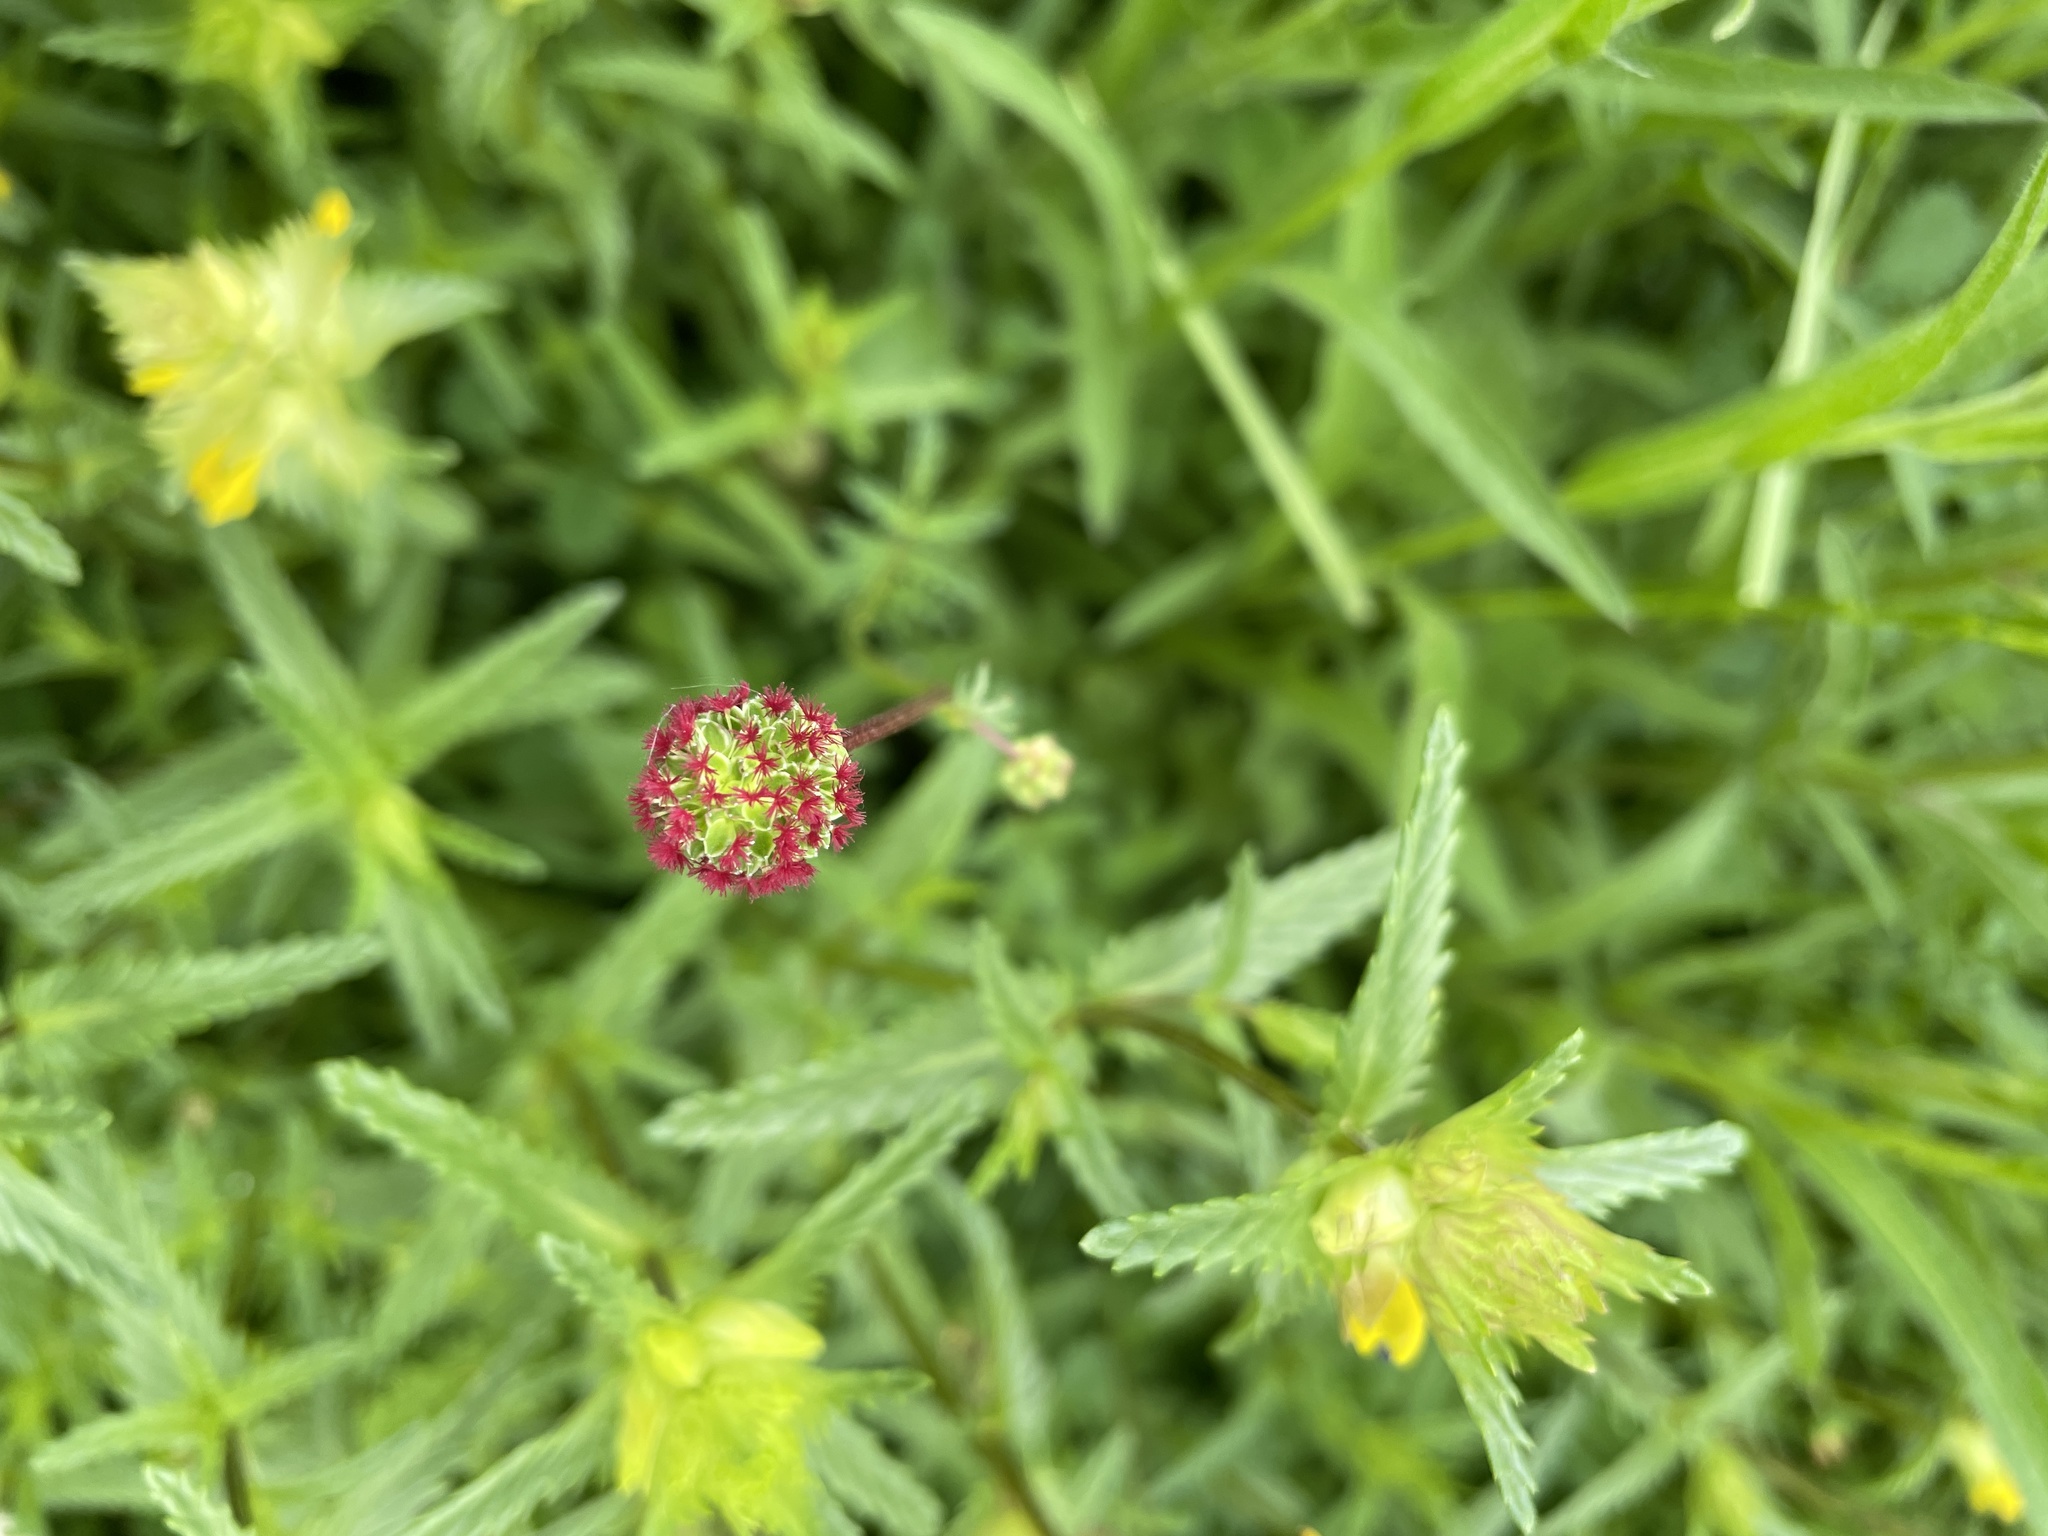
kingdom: Plantae
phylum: Tracheophyta
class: Magnoliopsida
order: Rosales
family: Rosaceae
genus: Poterium
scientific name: Poterium sanguisorba
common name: Salad burnet
